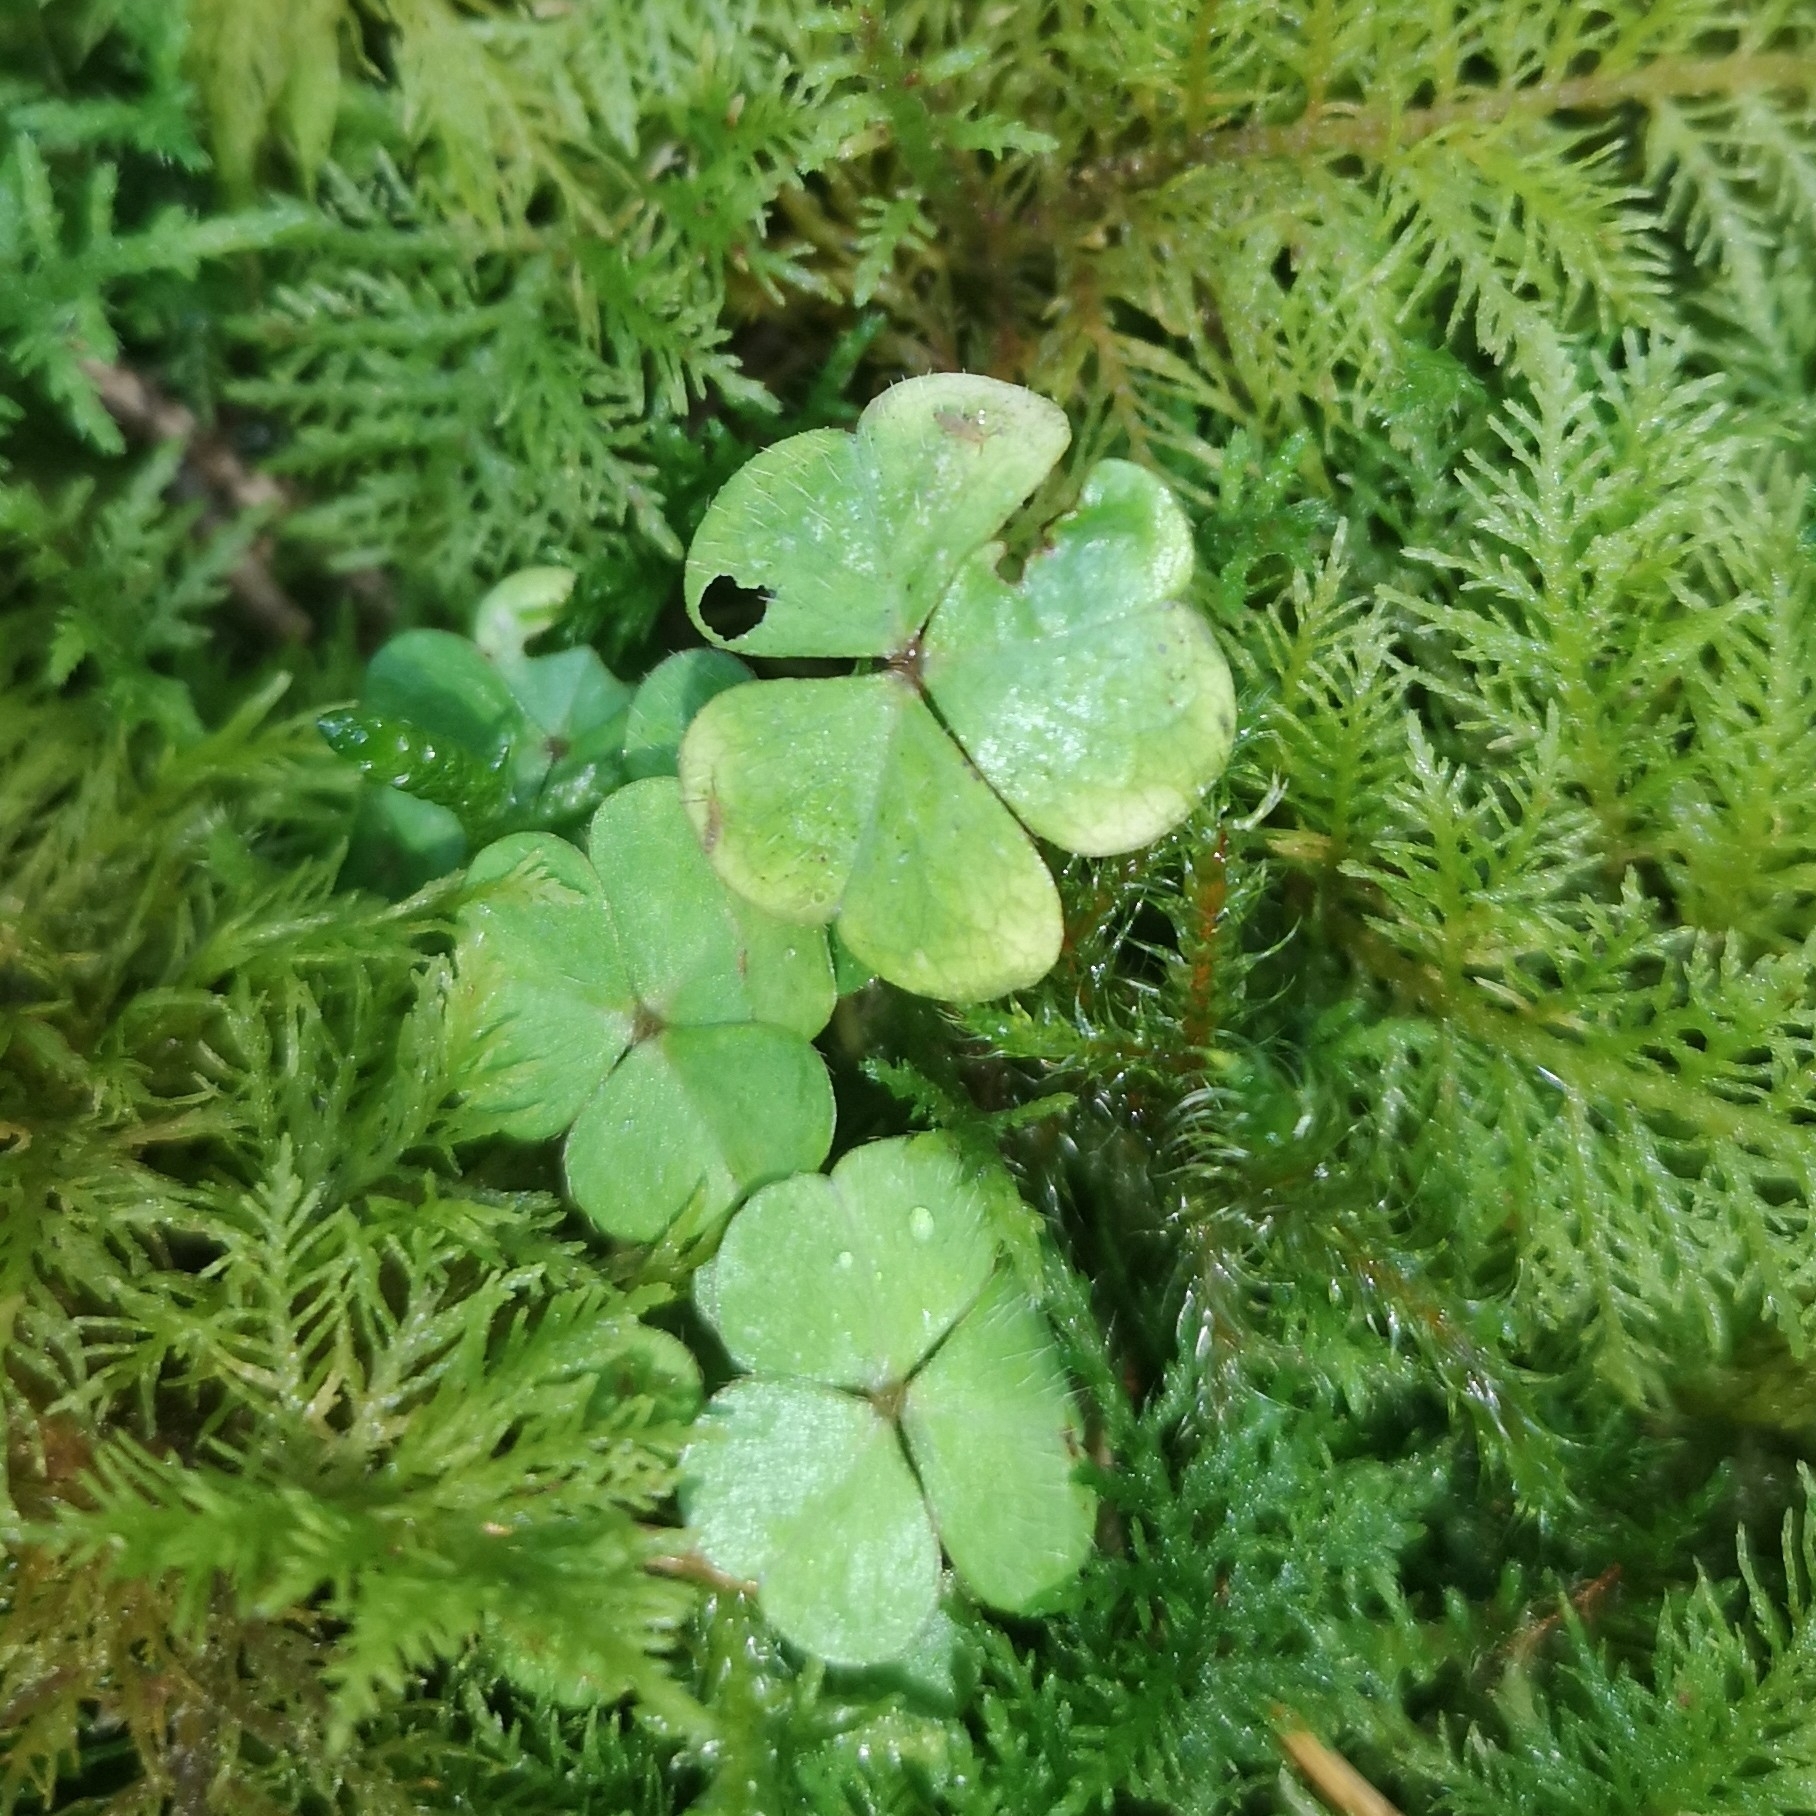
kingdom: Plantae
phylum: Tracheophyta
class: Magnoliopsida
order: Oxalidales
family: Oxalidaceae
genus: Oxalis
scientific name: Oxalis acetosella
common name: Wood-sorrel
